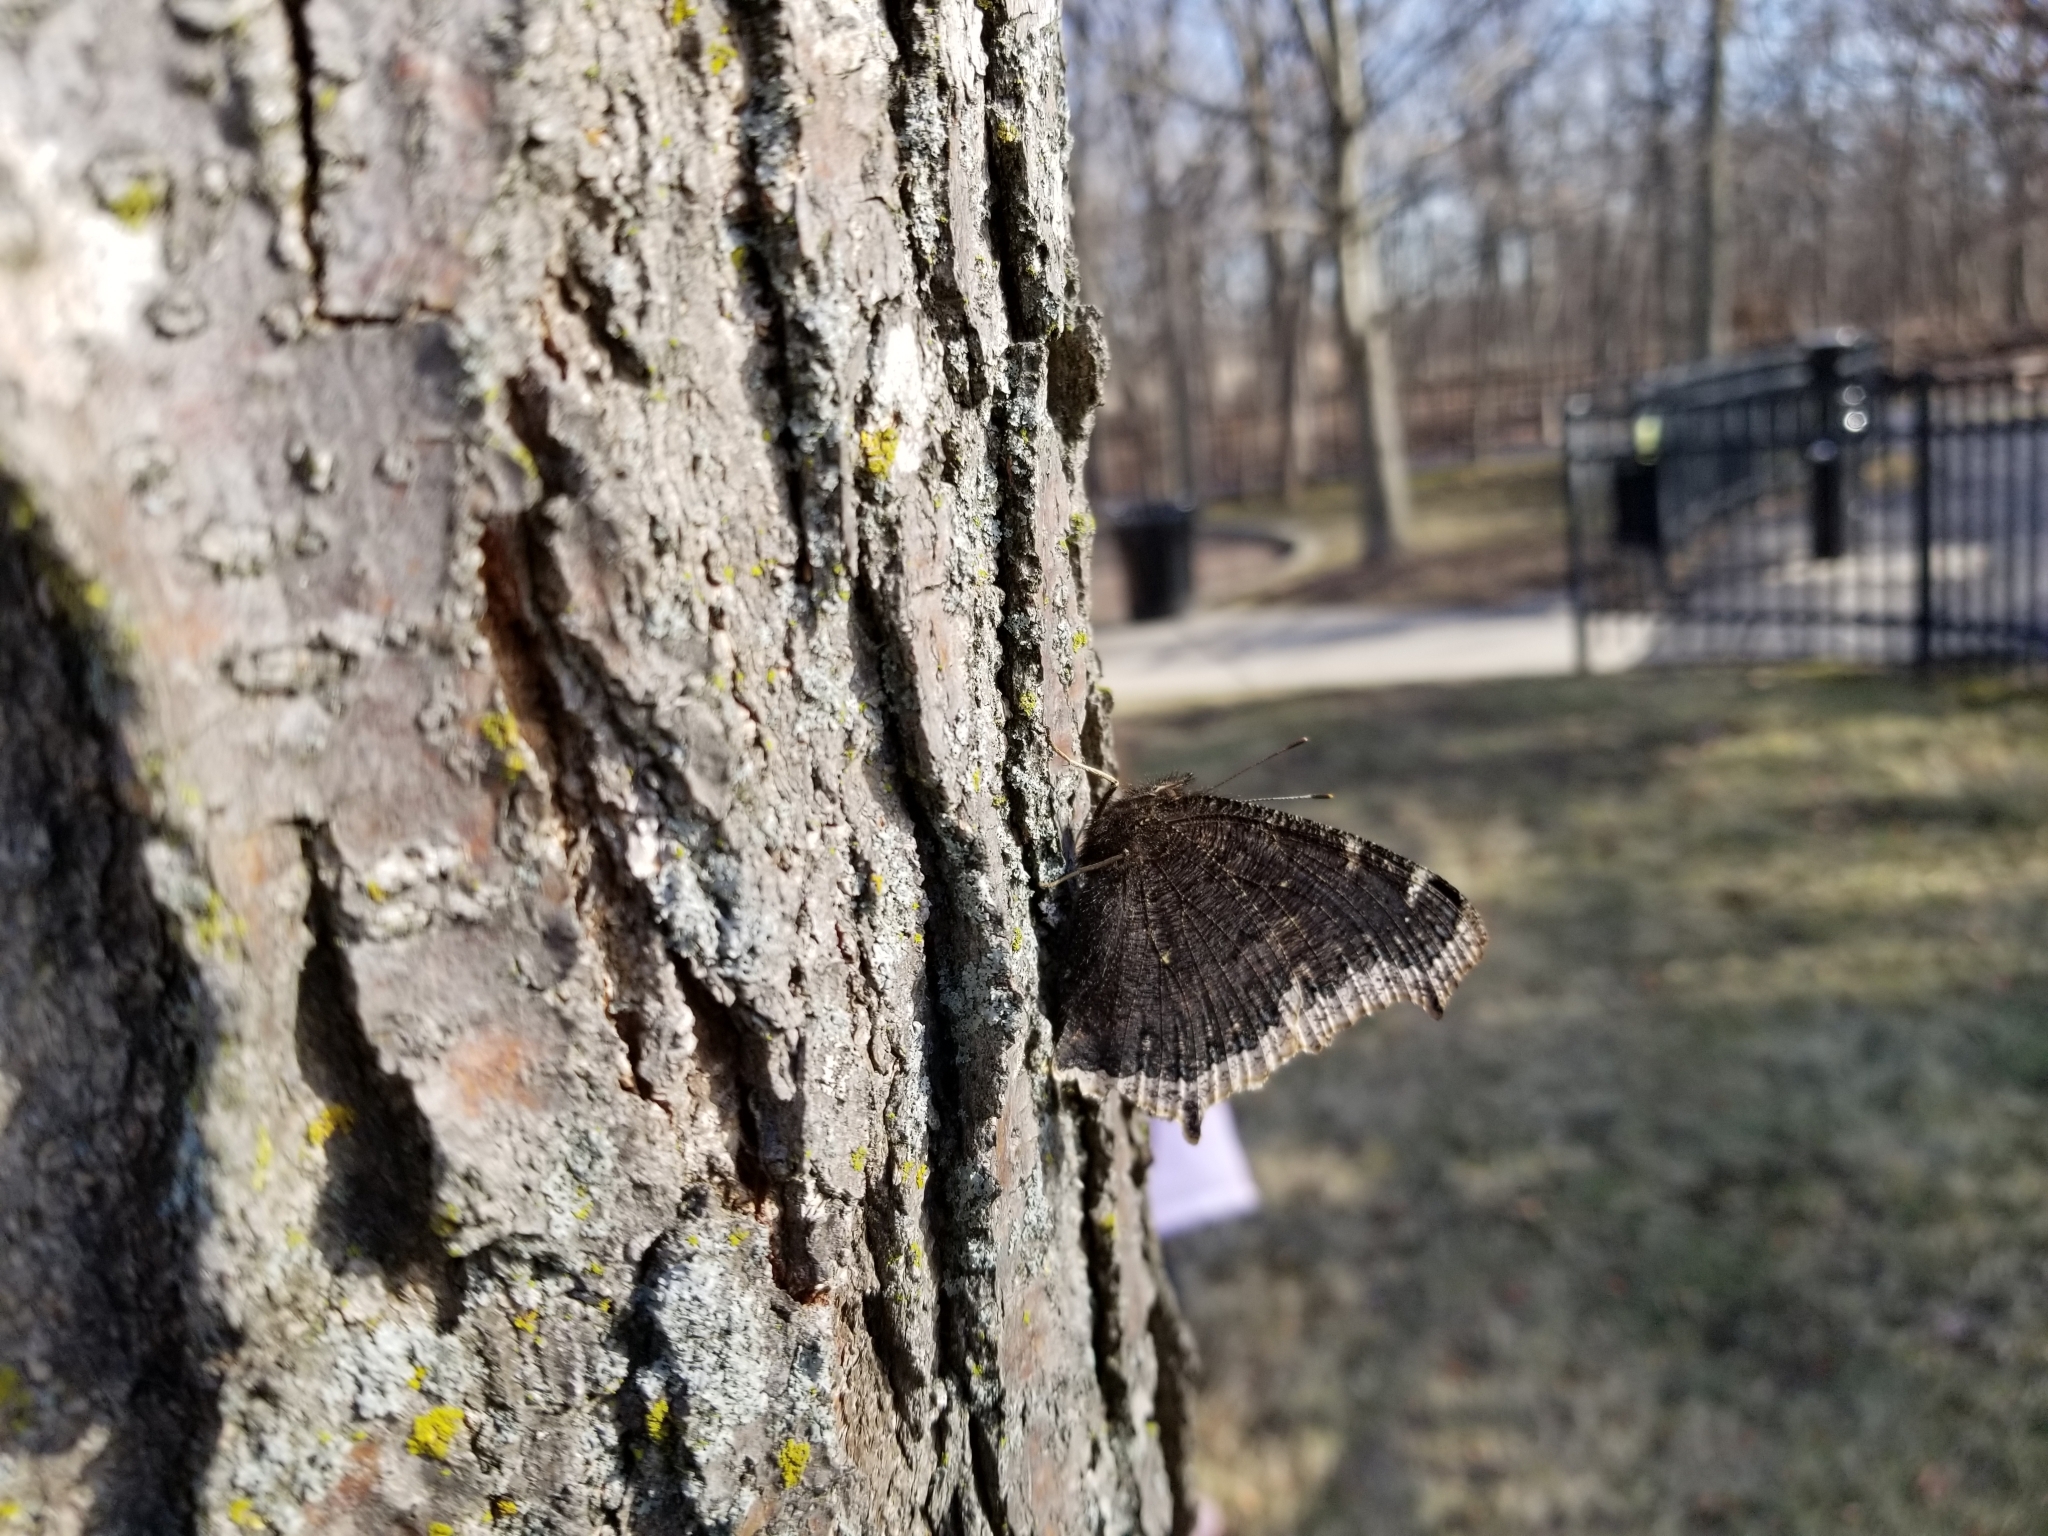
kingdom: Animalia
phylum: Arthropoda
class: Insecta
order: Lepidoptera
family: Nymphalidae
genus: Nymphalis
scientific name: Nymphalis antiopa
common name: Camberwell beauty
